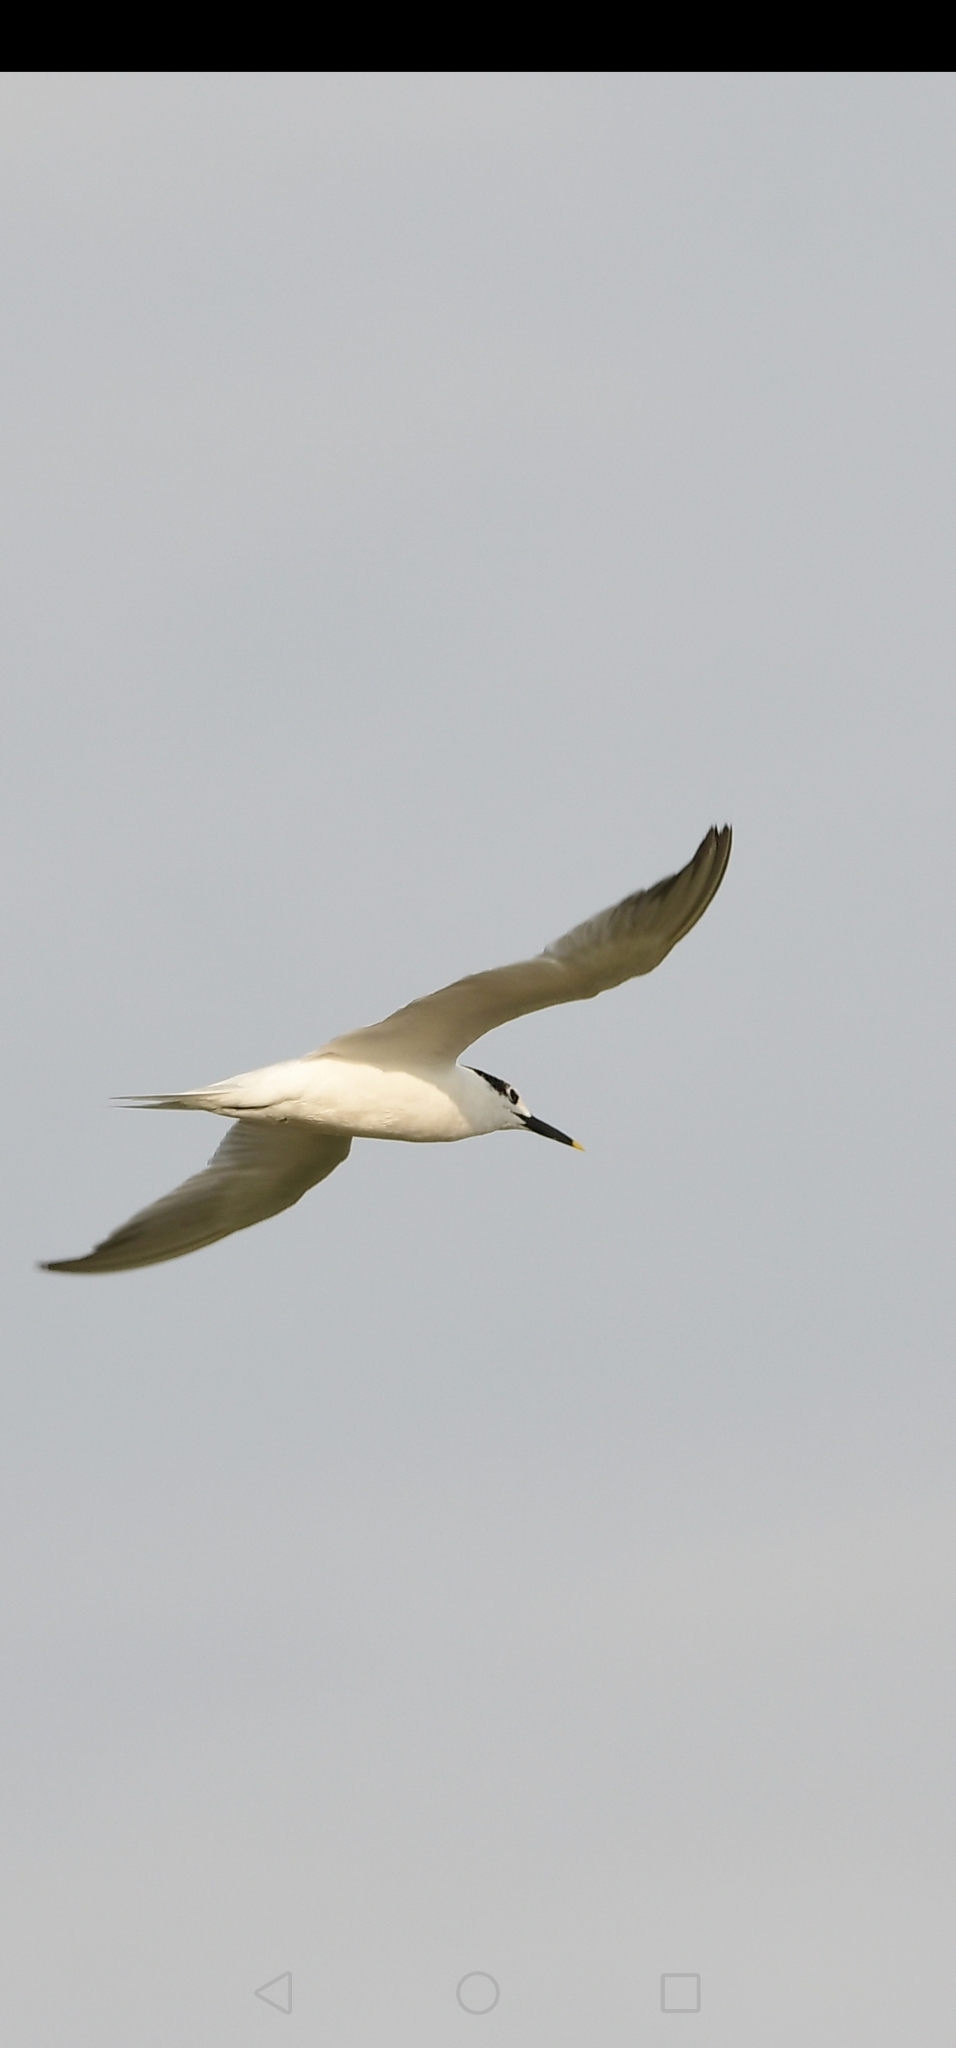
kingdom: Animalia
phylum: Chordata
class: Aves
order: Charadriiformes
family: Laridae
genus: Thalasseus
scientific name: Thalasseus sandvicensis
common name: Sandwich tern
